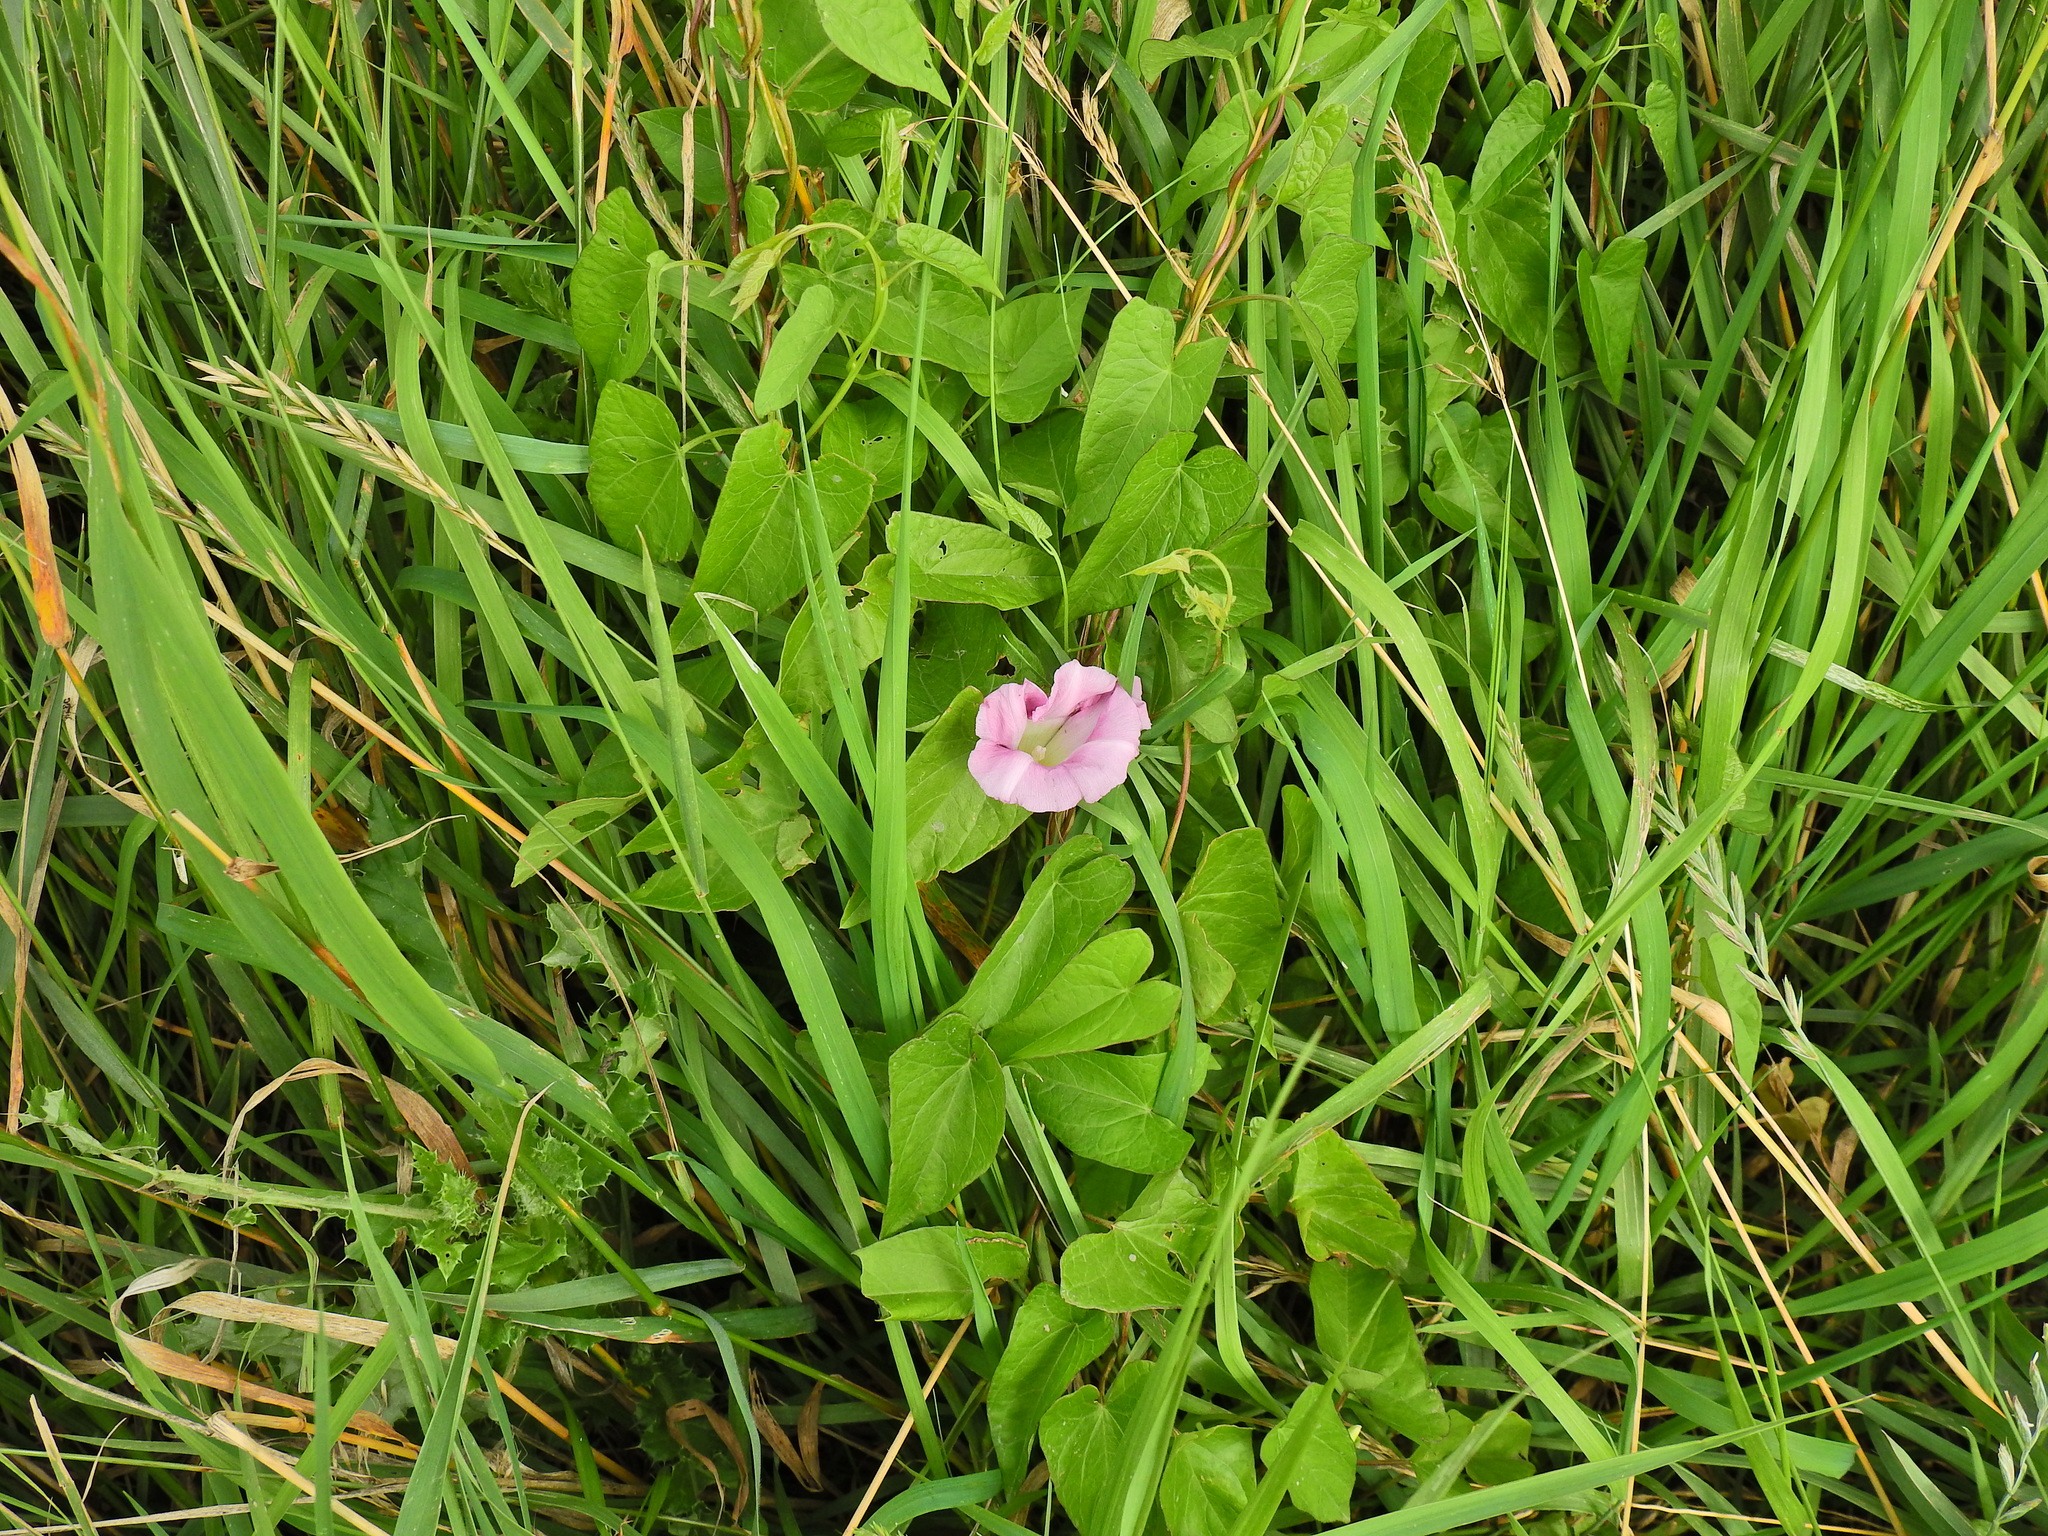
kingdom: Plantae
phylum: Tracheophyta
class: Magnoliopsida
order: Solanales
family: Convolvulaceae
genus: Calystegia
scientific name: Calystegia sepium
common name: Hedge bindweed
